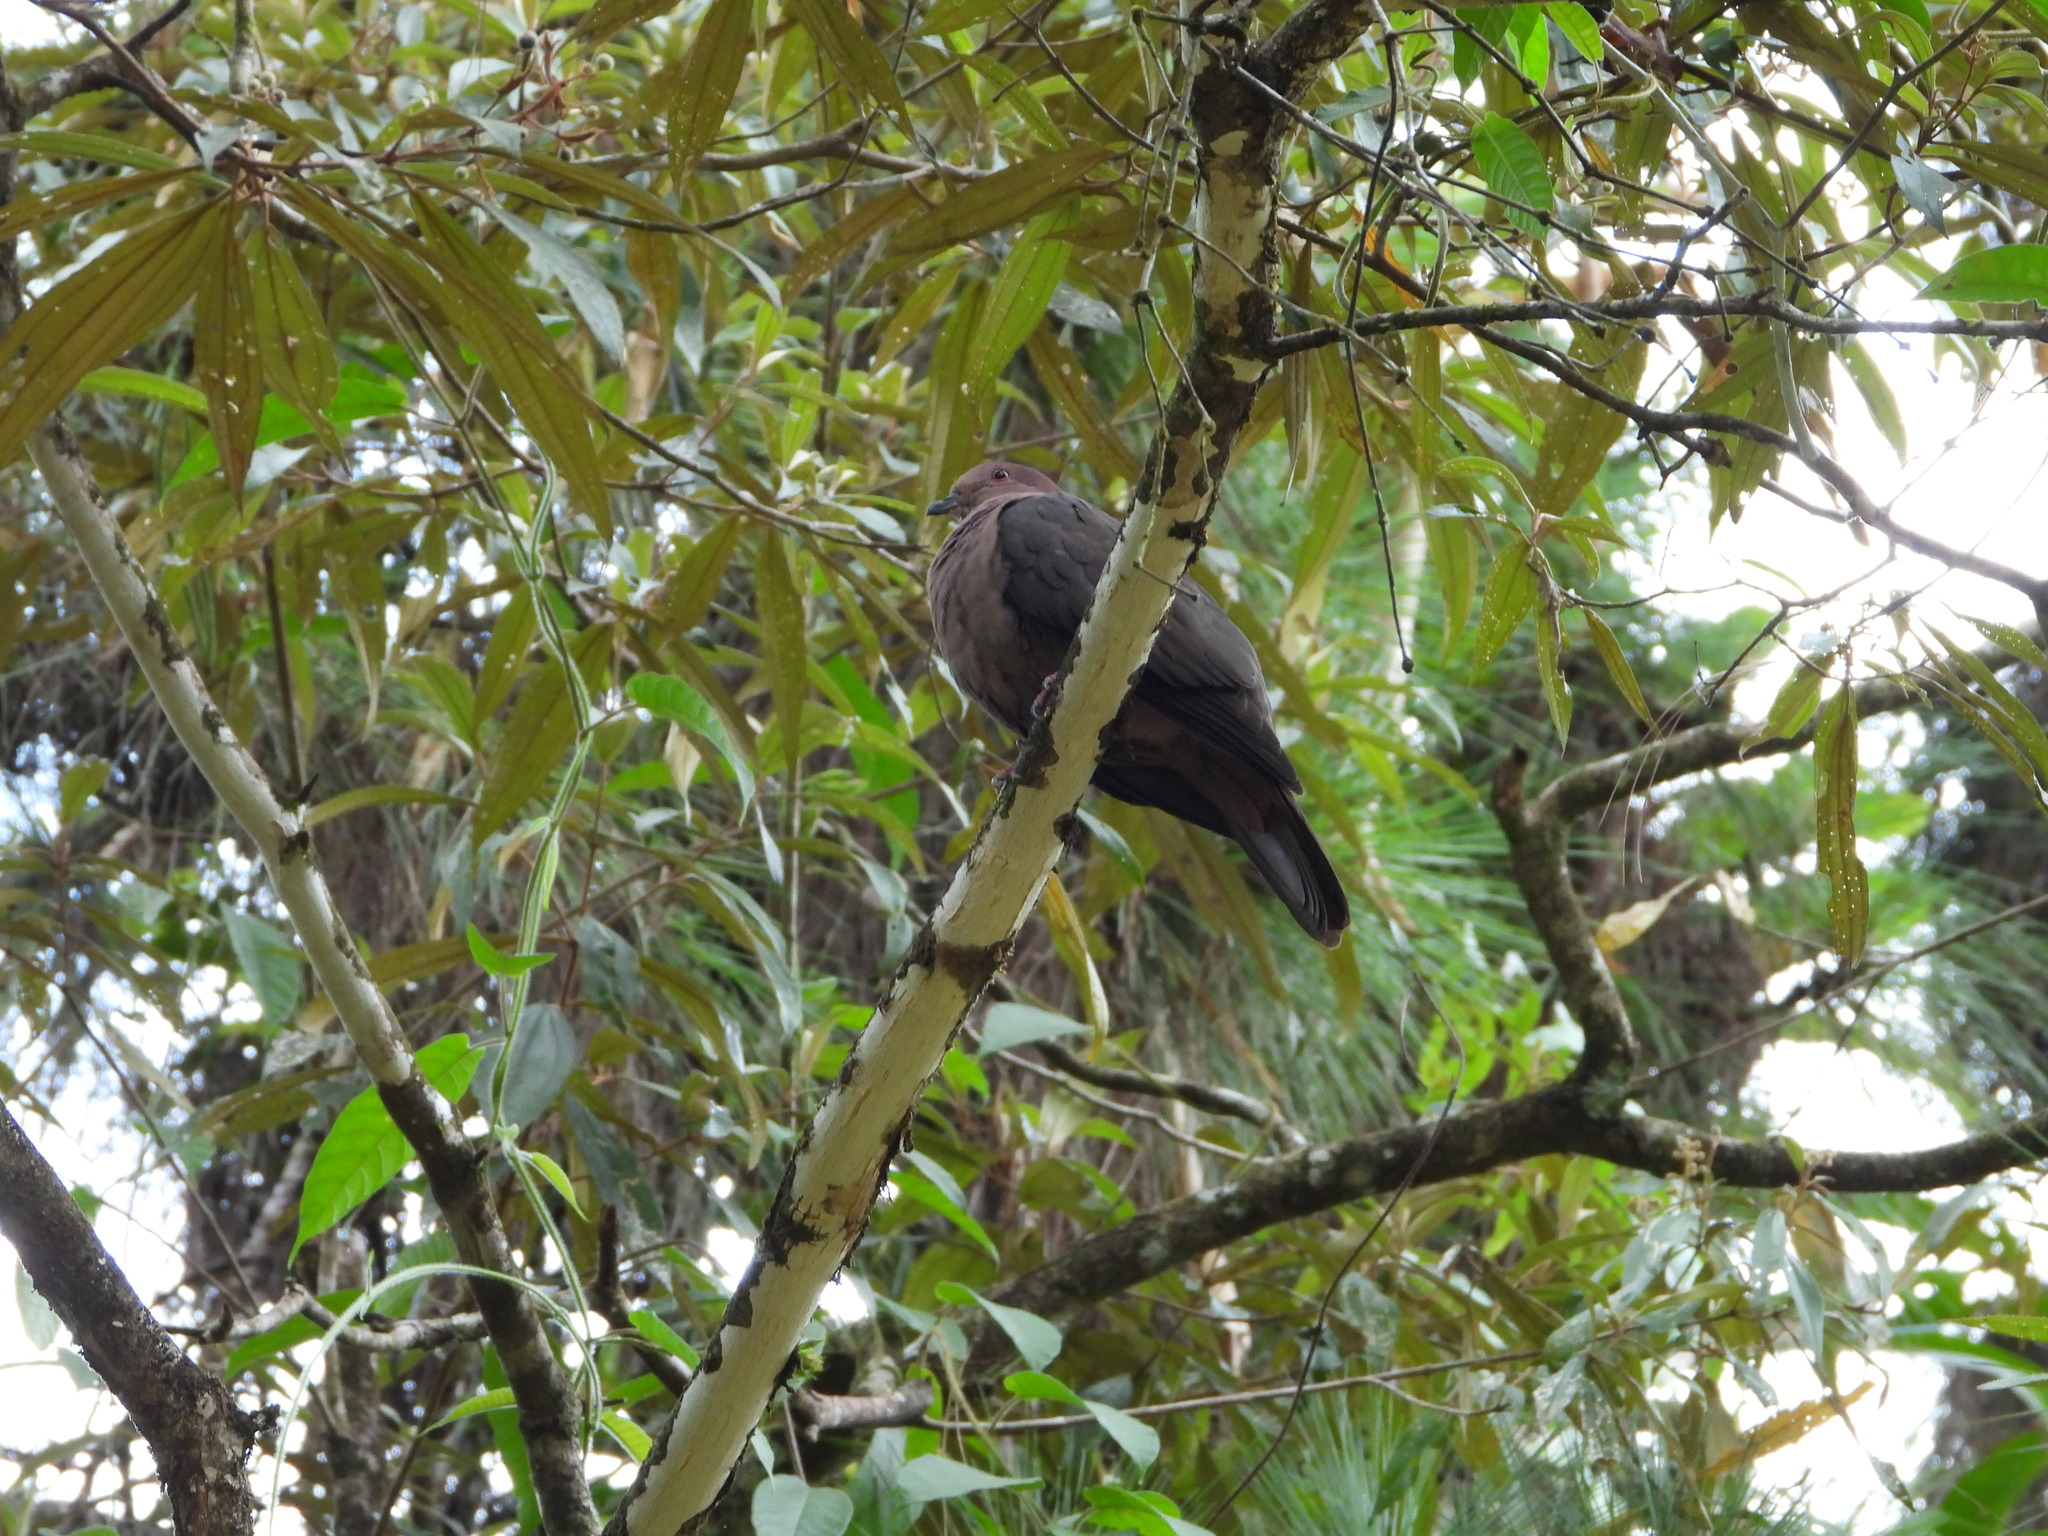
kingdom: Animalia
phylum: Chordata
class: Aves
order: Columbiformes
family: Columbidae
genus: Patagioenas
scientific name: Patagioenas nigrirostris
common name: Short-billed pigeon
